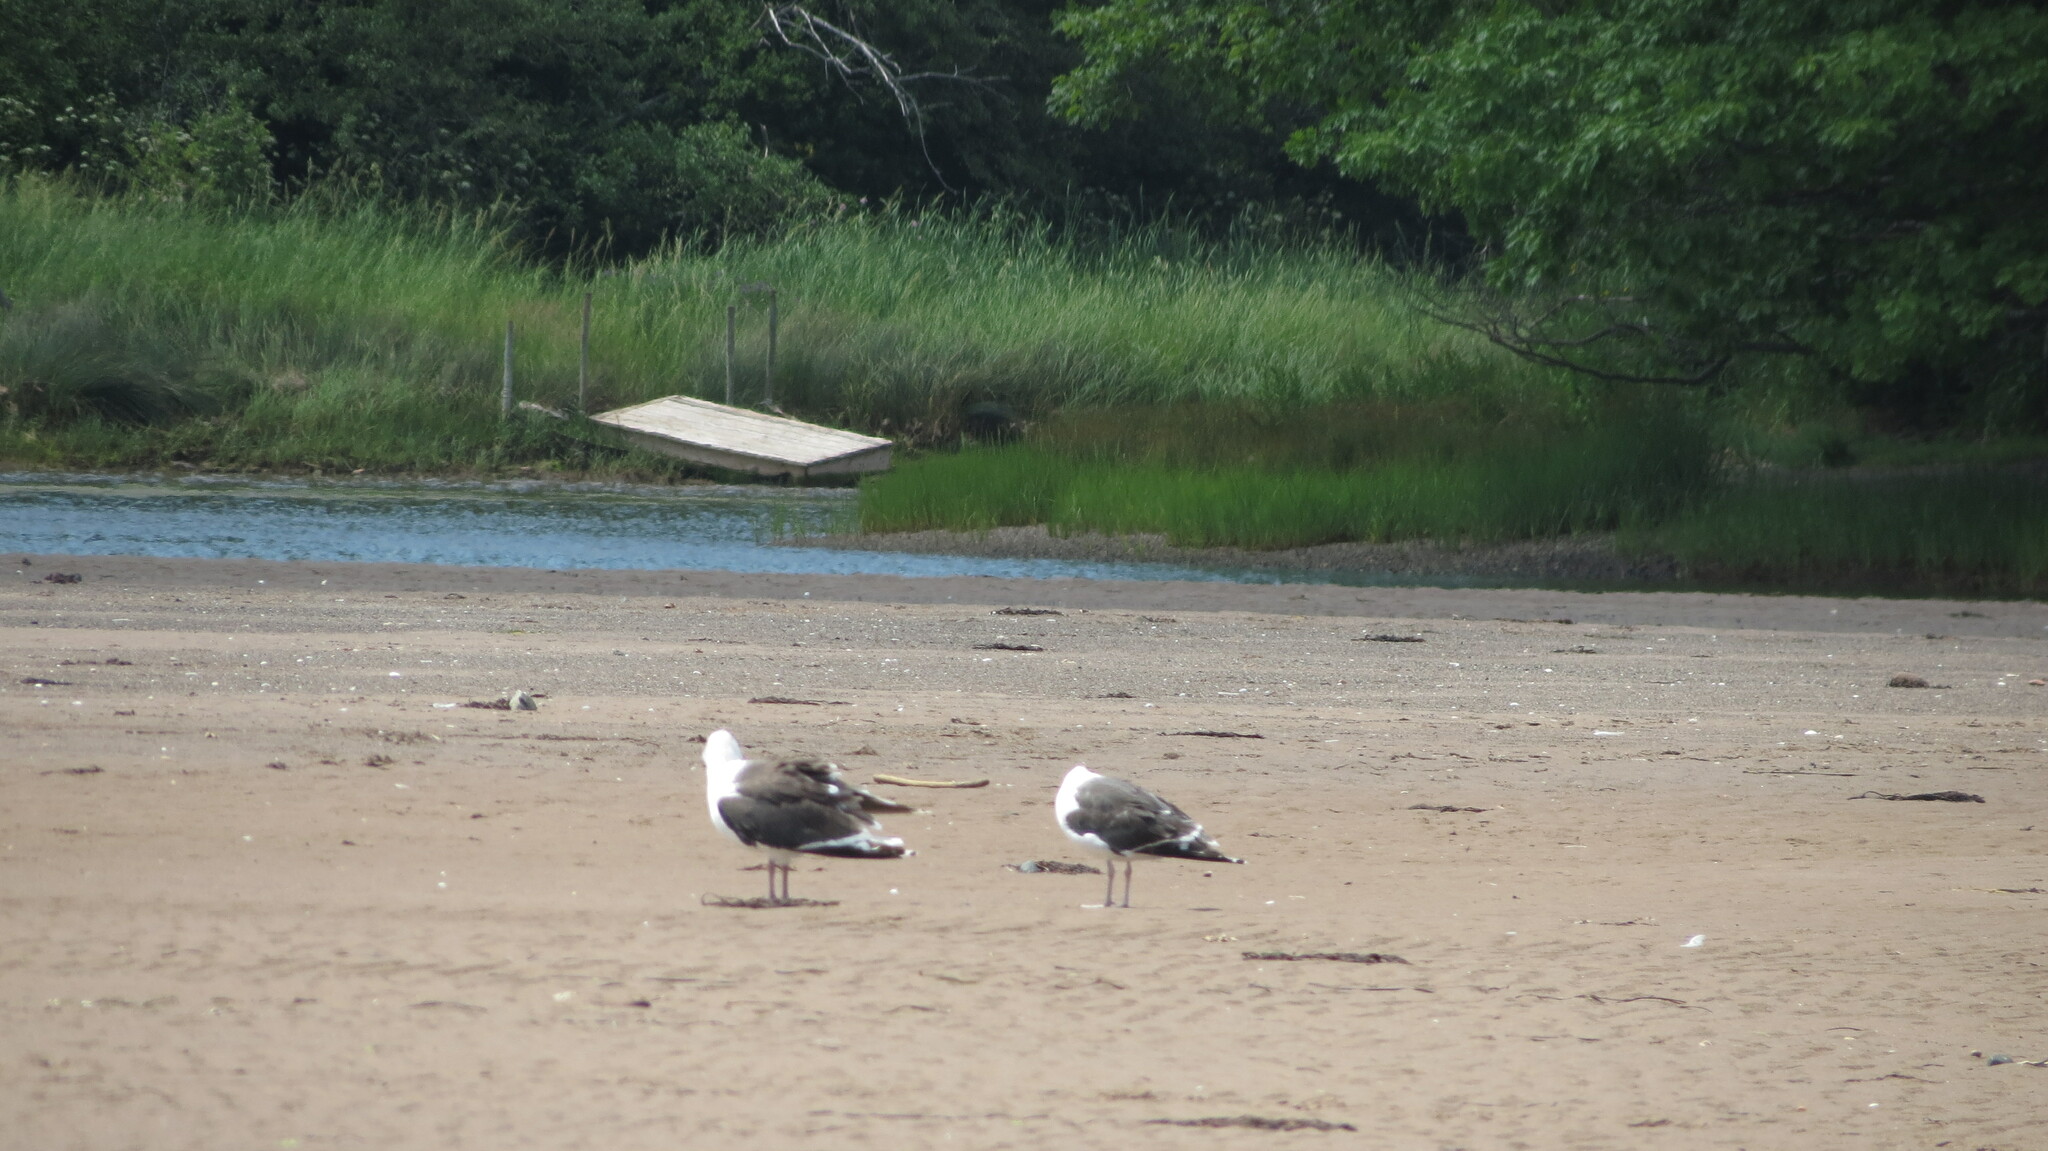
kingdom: Animalia
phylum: Chordata
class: Aves
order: Charadriiformes
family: Laridae
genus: Larus
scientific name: Larus marinus
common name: Great black-backed gull
